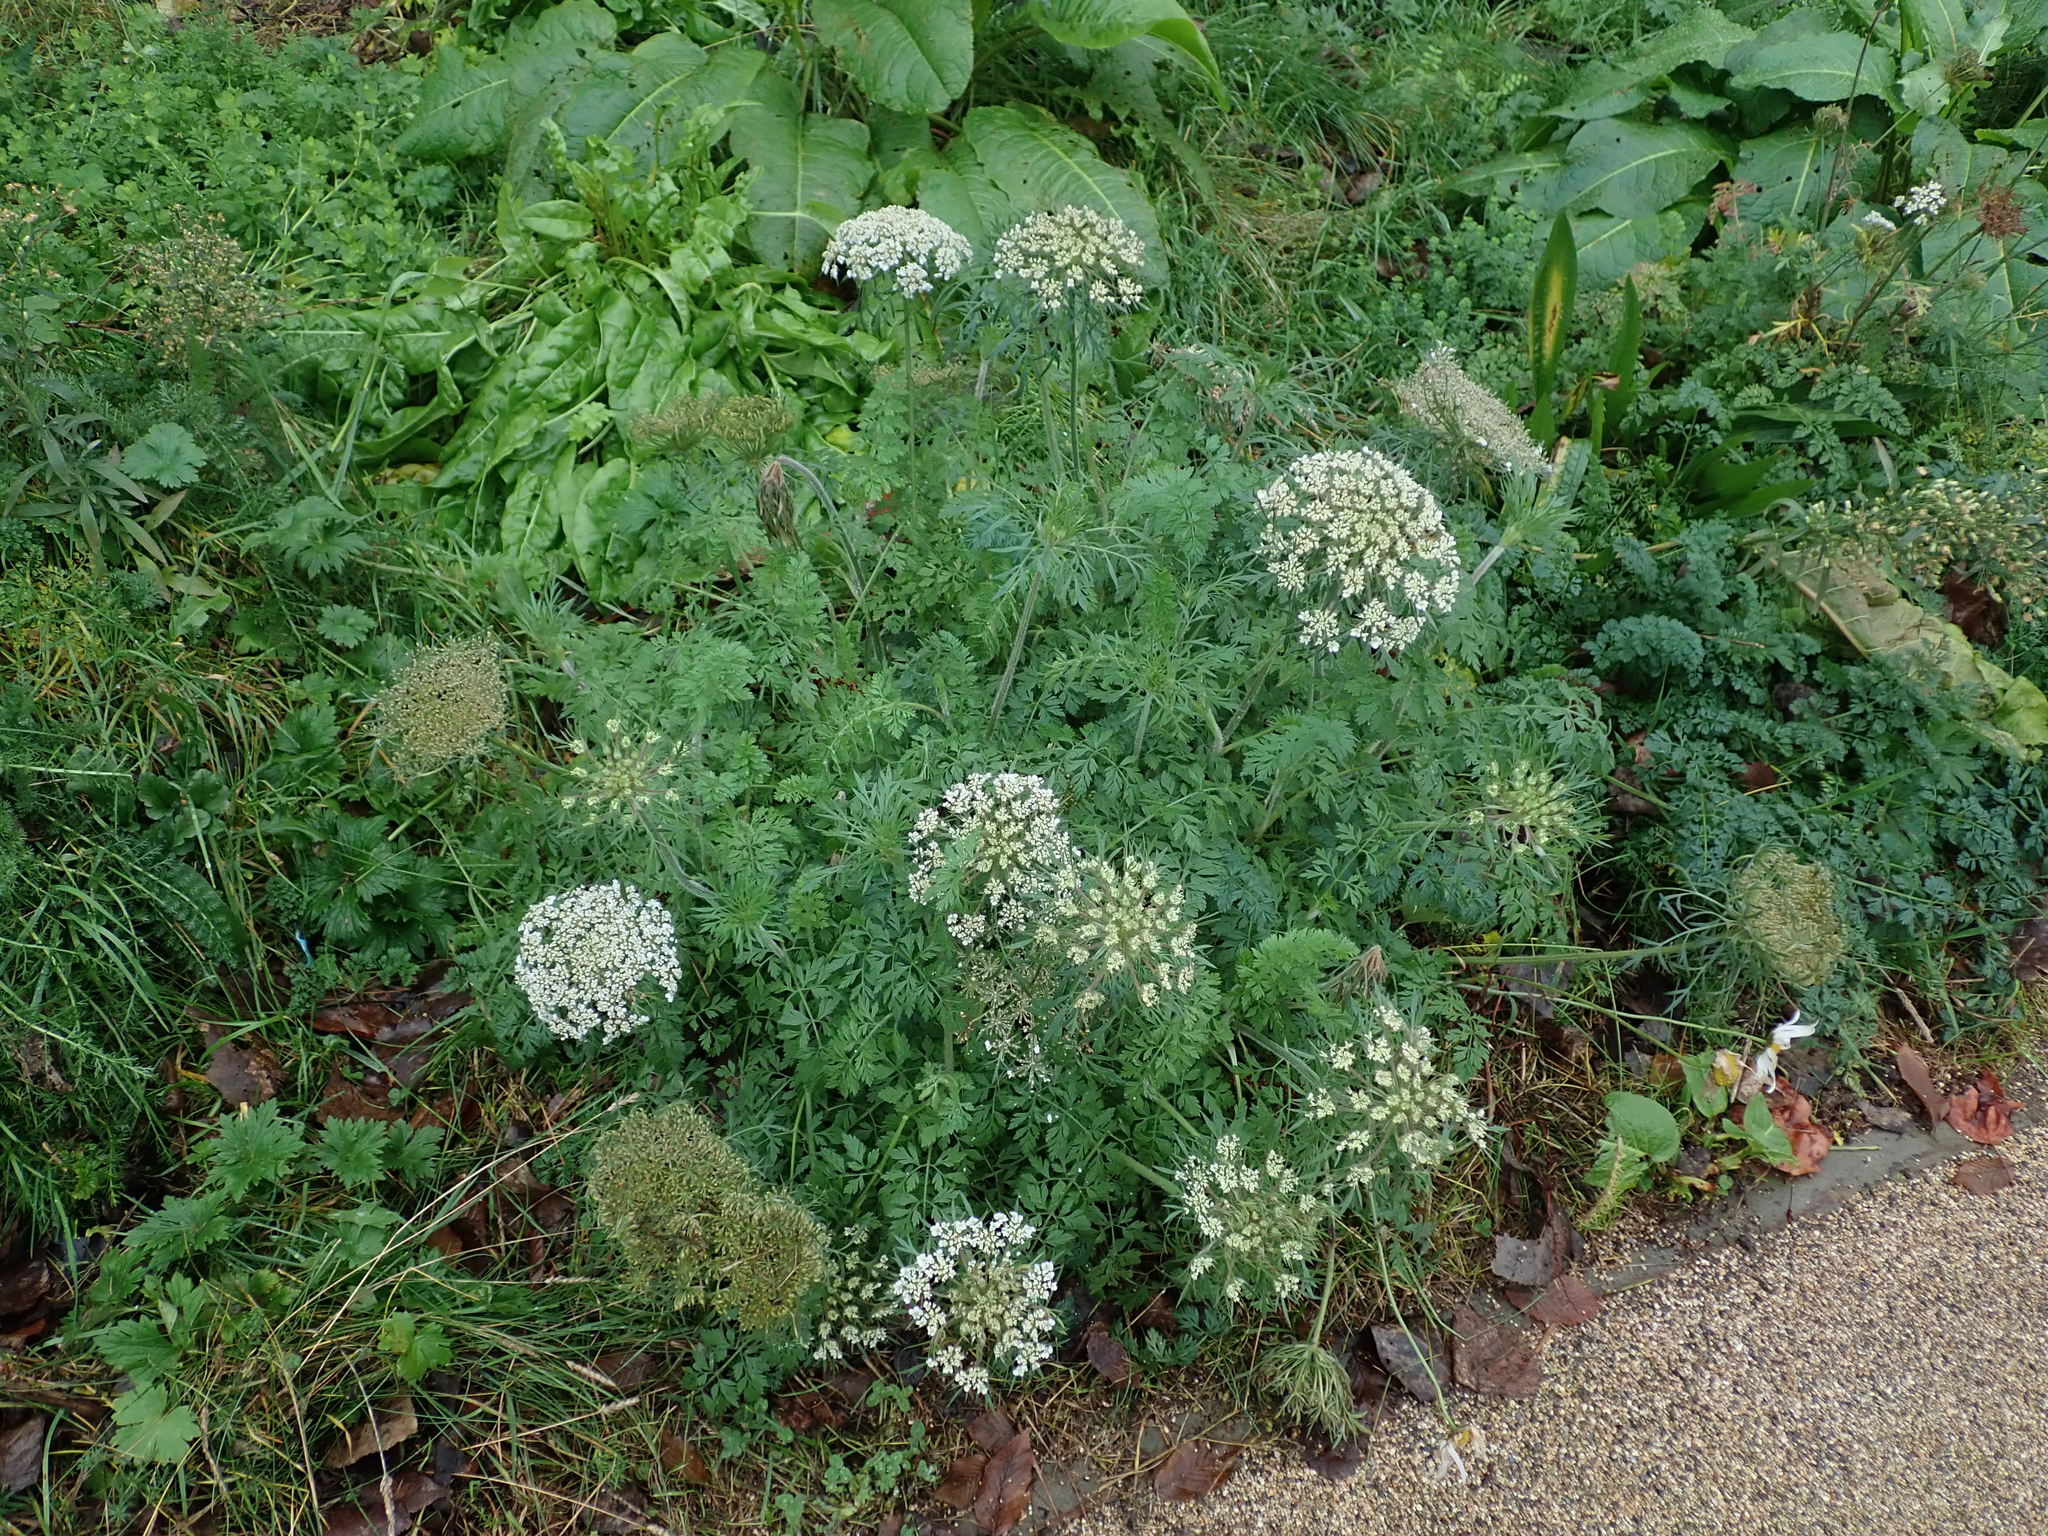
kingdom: Plantae
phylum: Tracheophyta
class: Magnoliopsida
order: Apiales
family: Apiaceae
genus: Daucus
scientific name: Daucus carota
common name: Wild carrot
